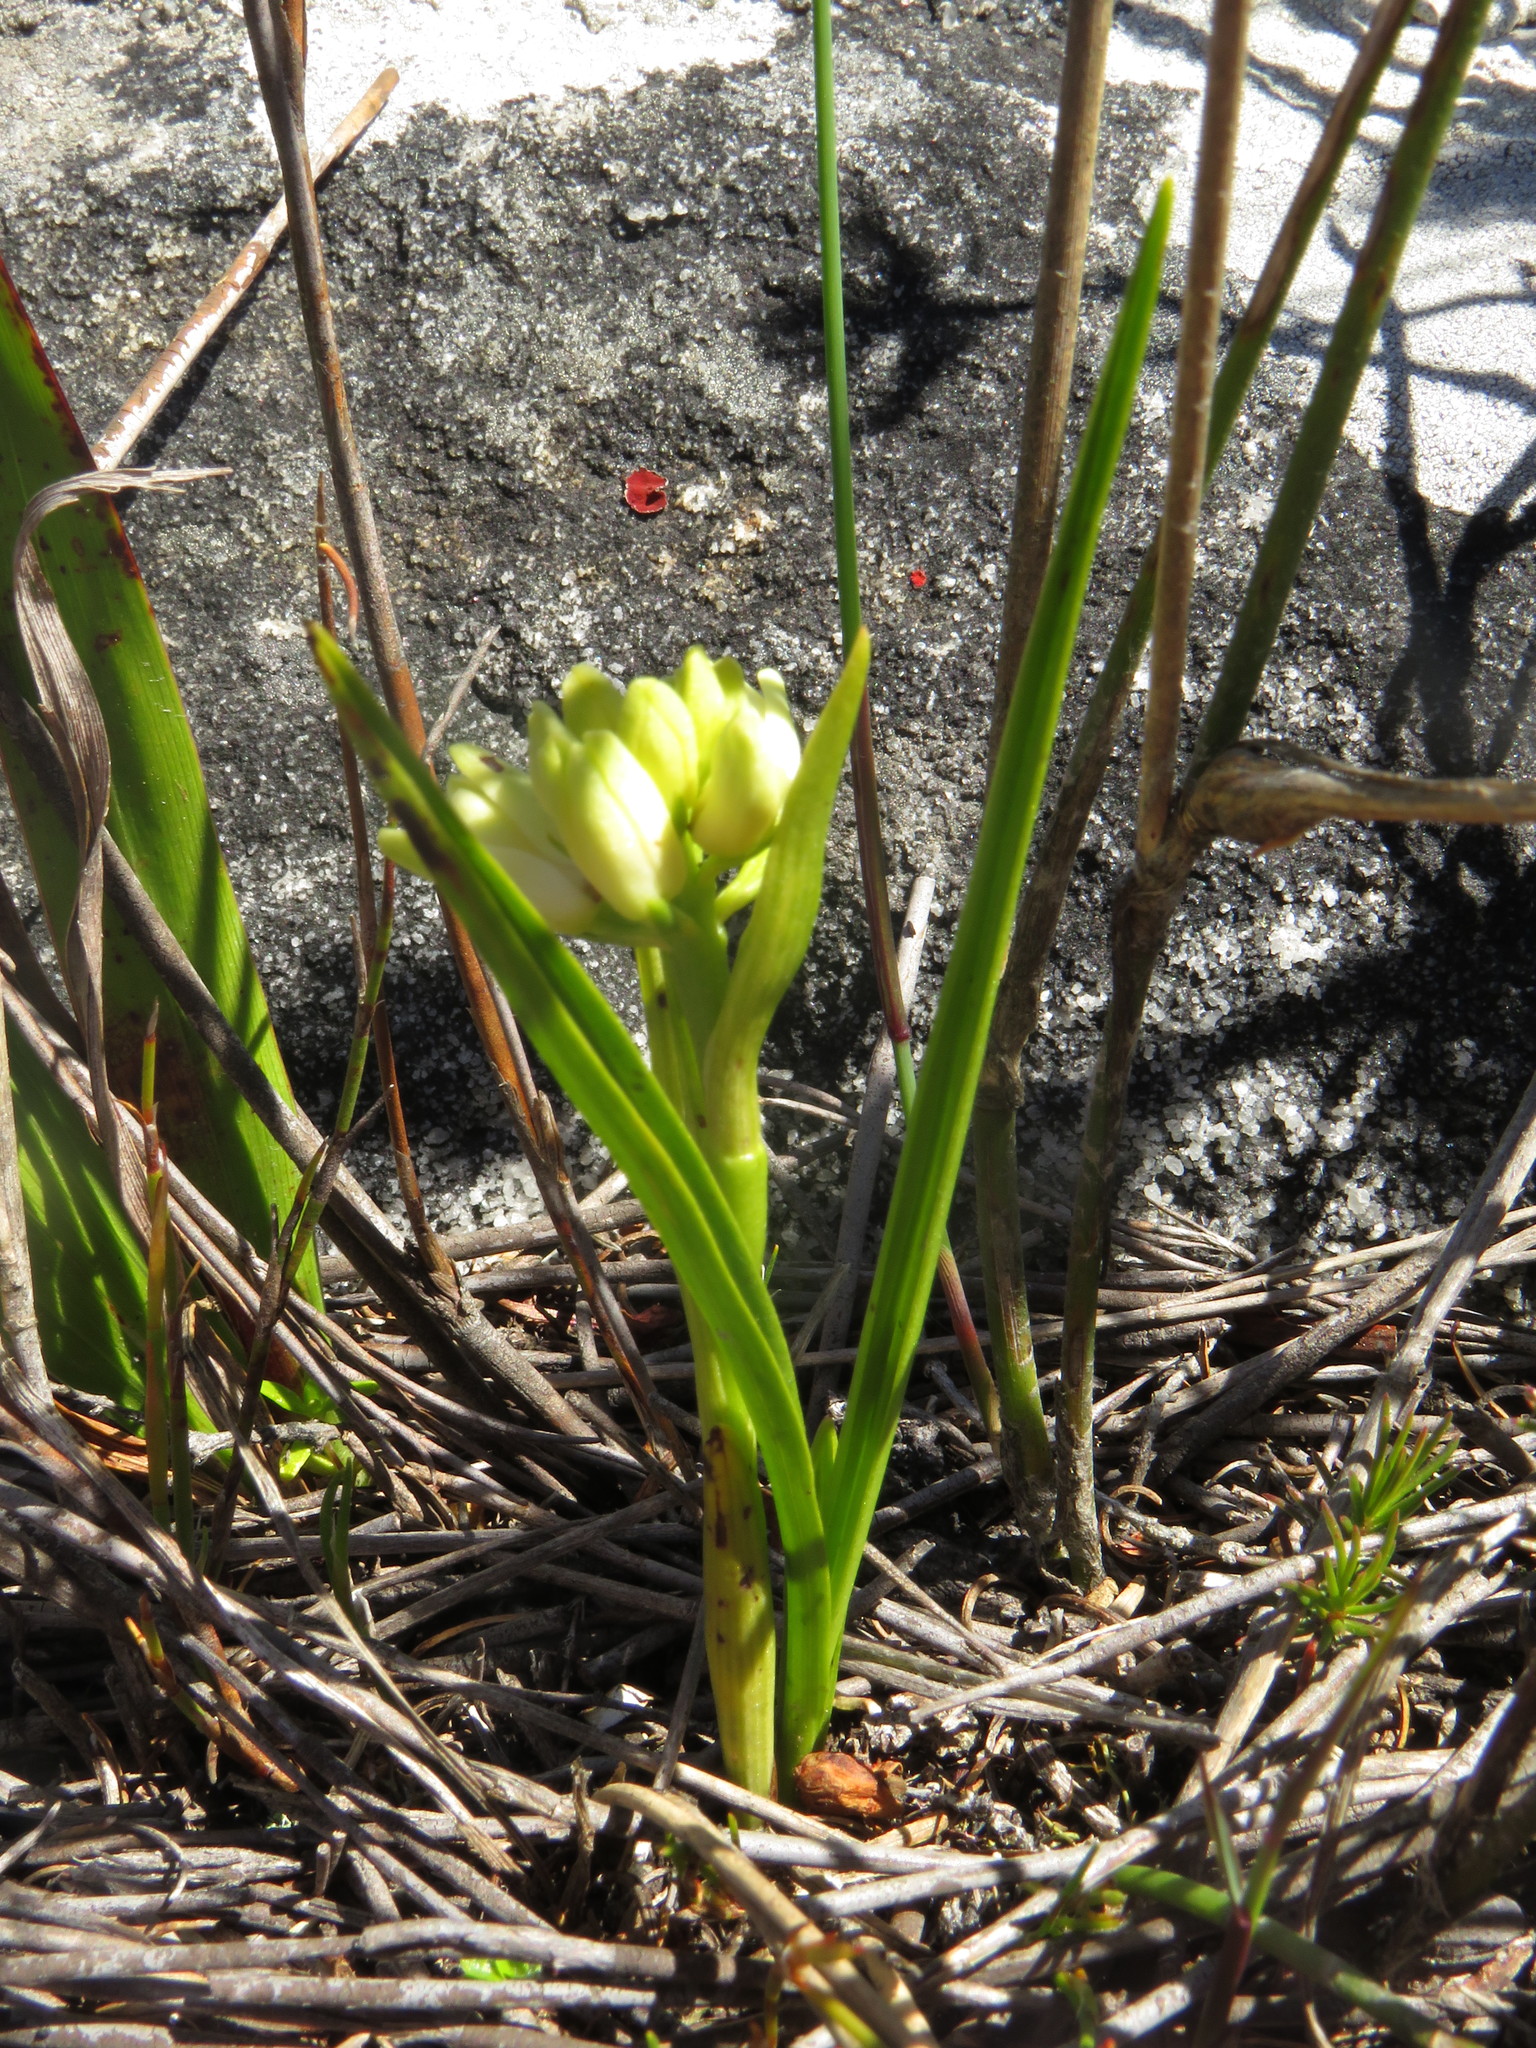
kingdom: Plantae
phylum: Tracheophyta
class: Liliopsida
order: Asparagales
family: Orchidaceae
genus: Eulophia
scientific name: Eulophia aculeata
